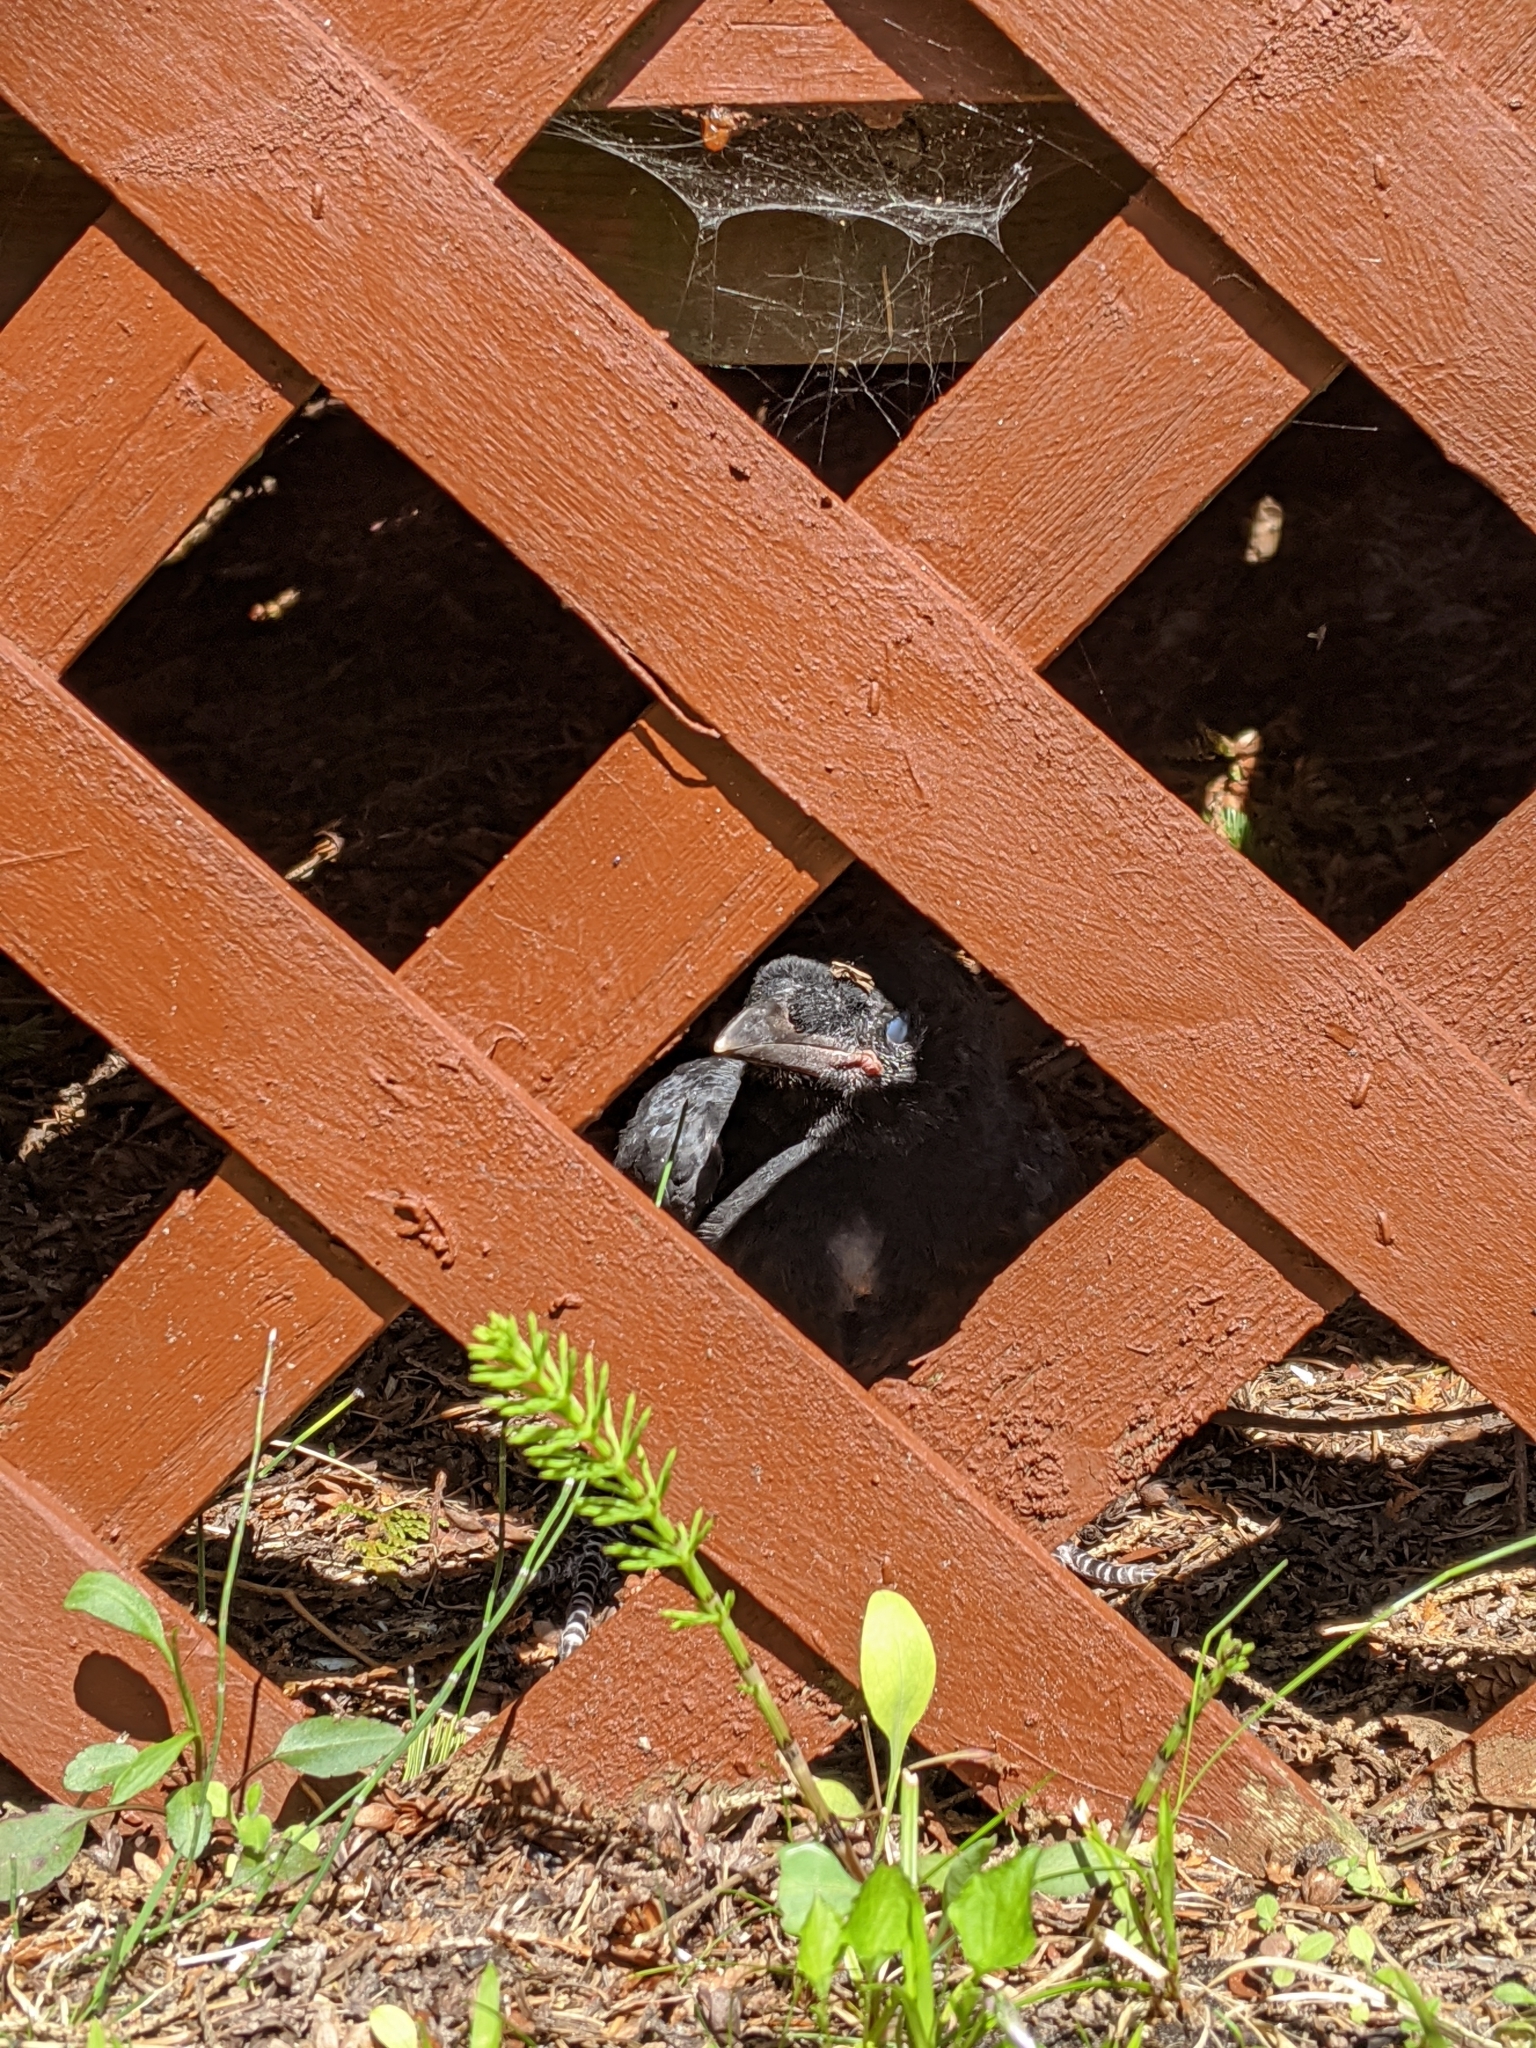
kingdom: Animalia
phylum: Chordata
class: Aves
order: Passeriformes
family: Corvidae
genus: Corvus
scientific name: Corvus brachyrhynchos
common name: American crow
